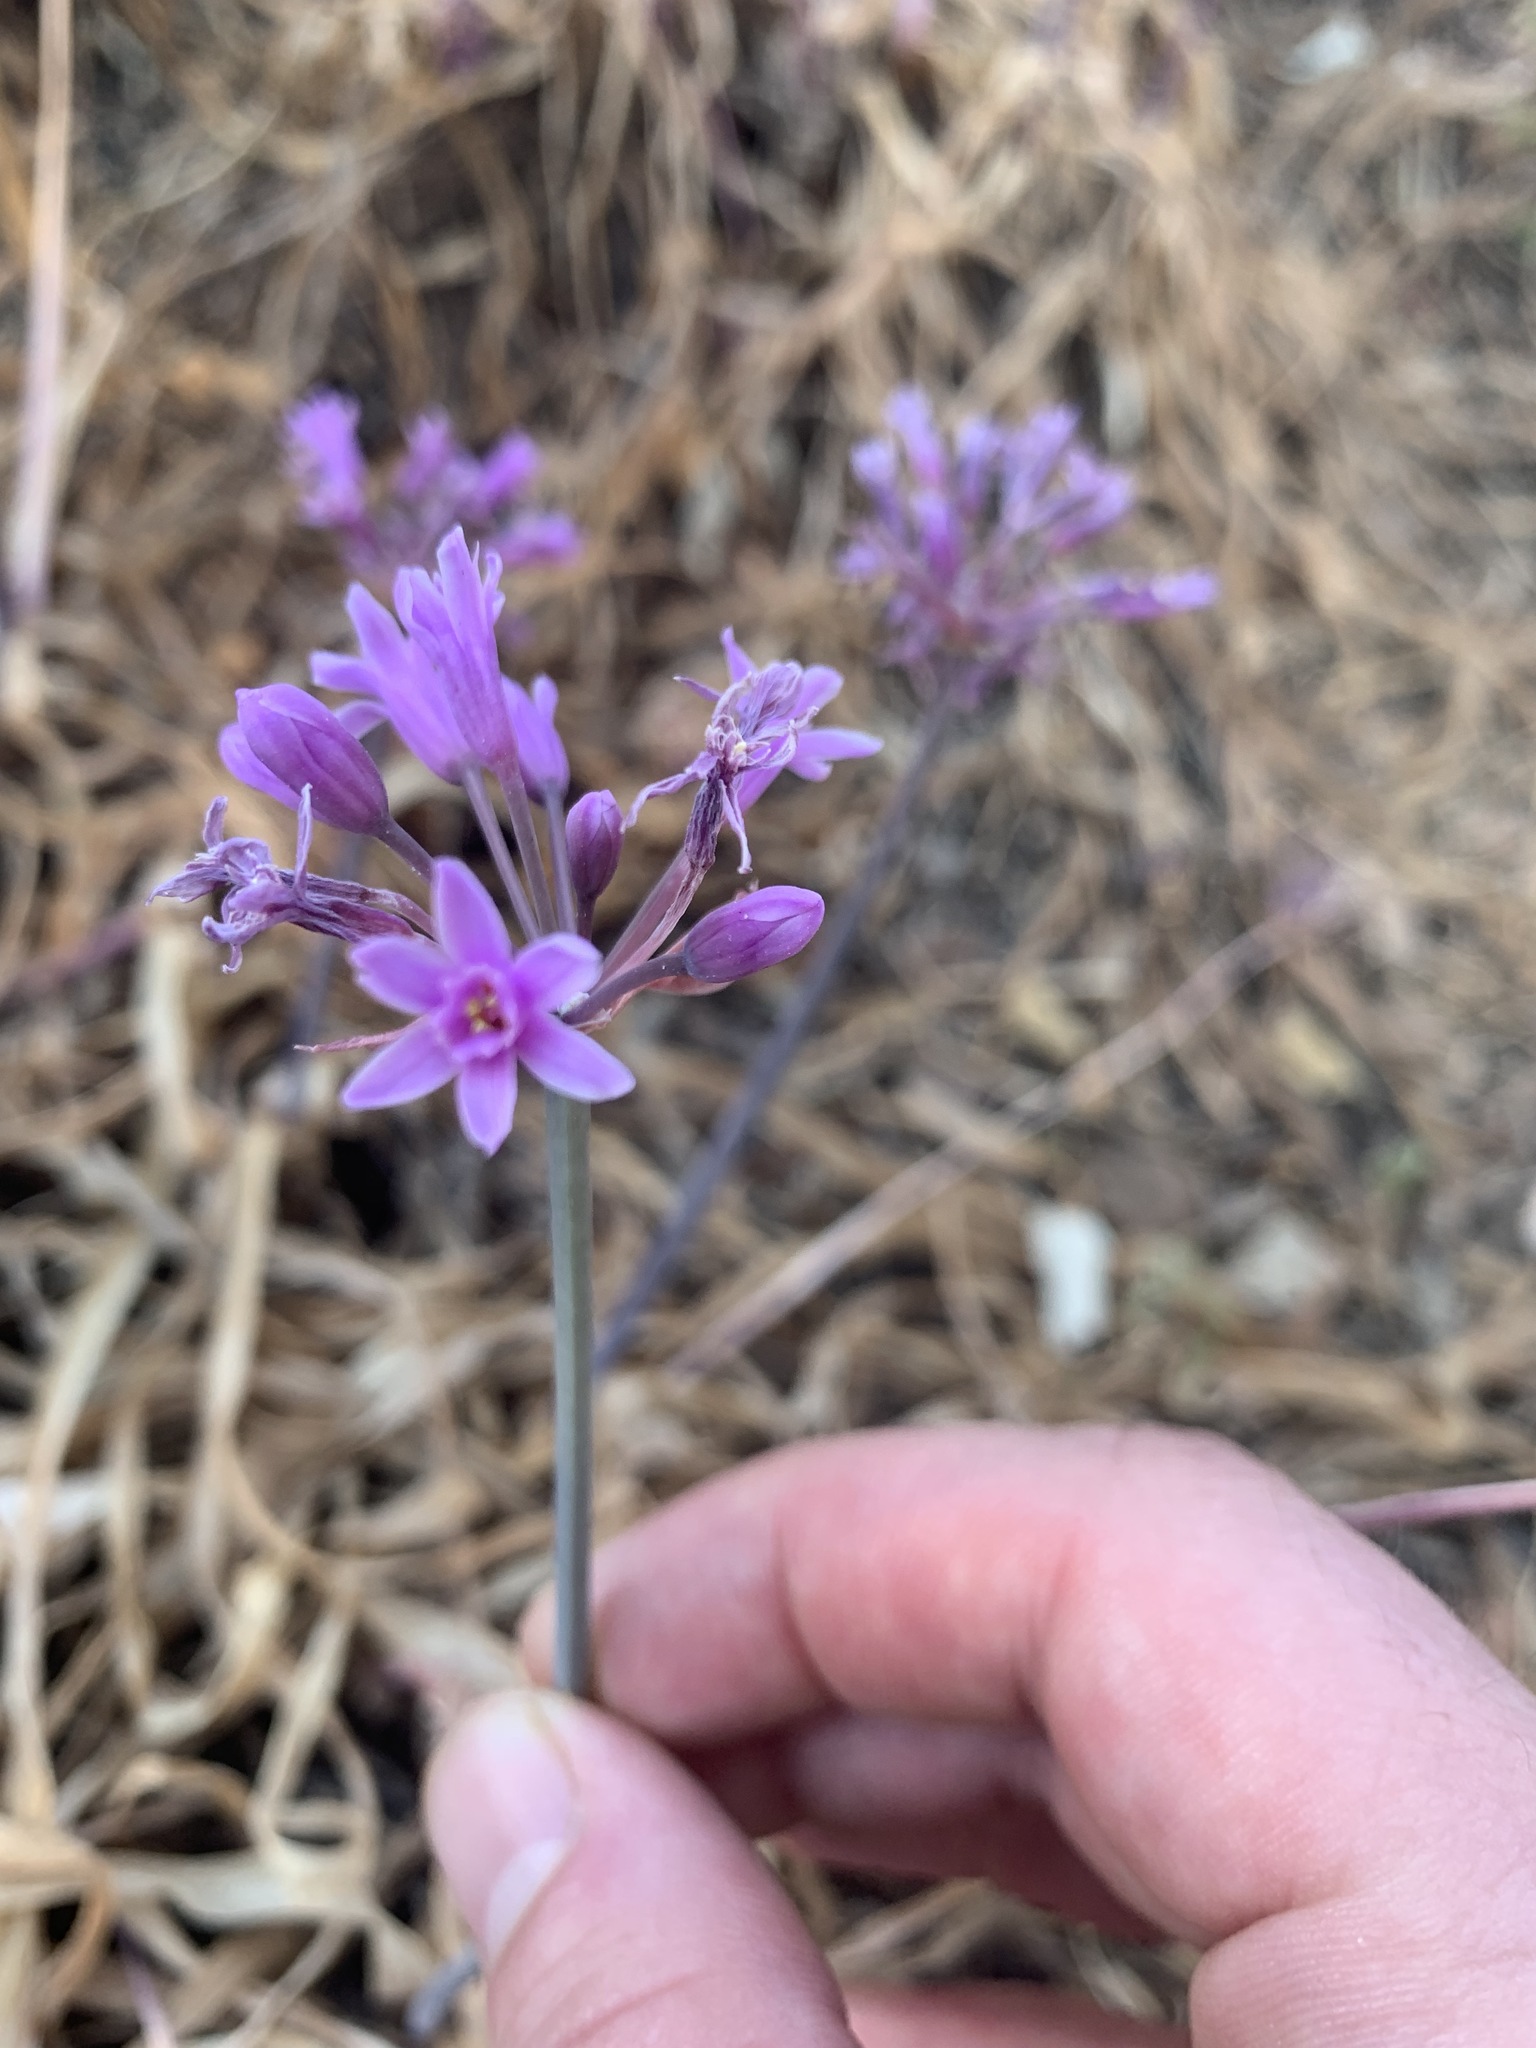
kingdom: Plantae
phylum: Tracheophyta
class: Liliopsida
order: Asparagales
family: Amaryllidaceae
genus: Tulbaghia
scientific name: Tulbaghia simmleri
